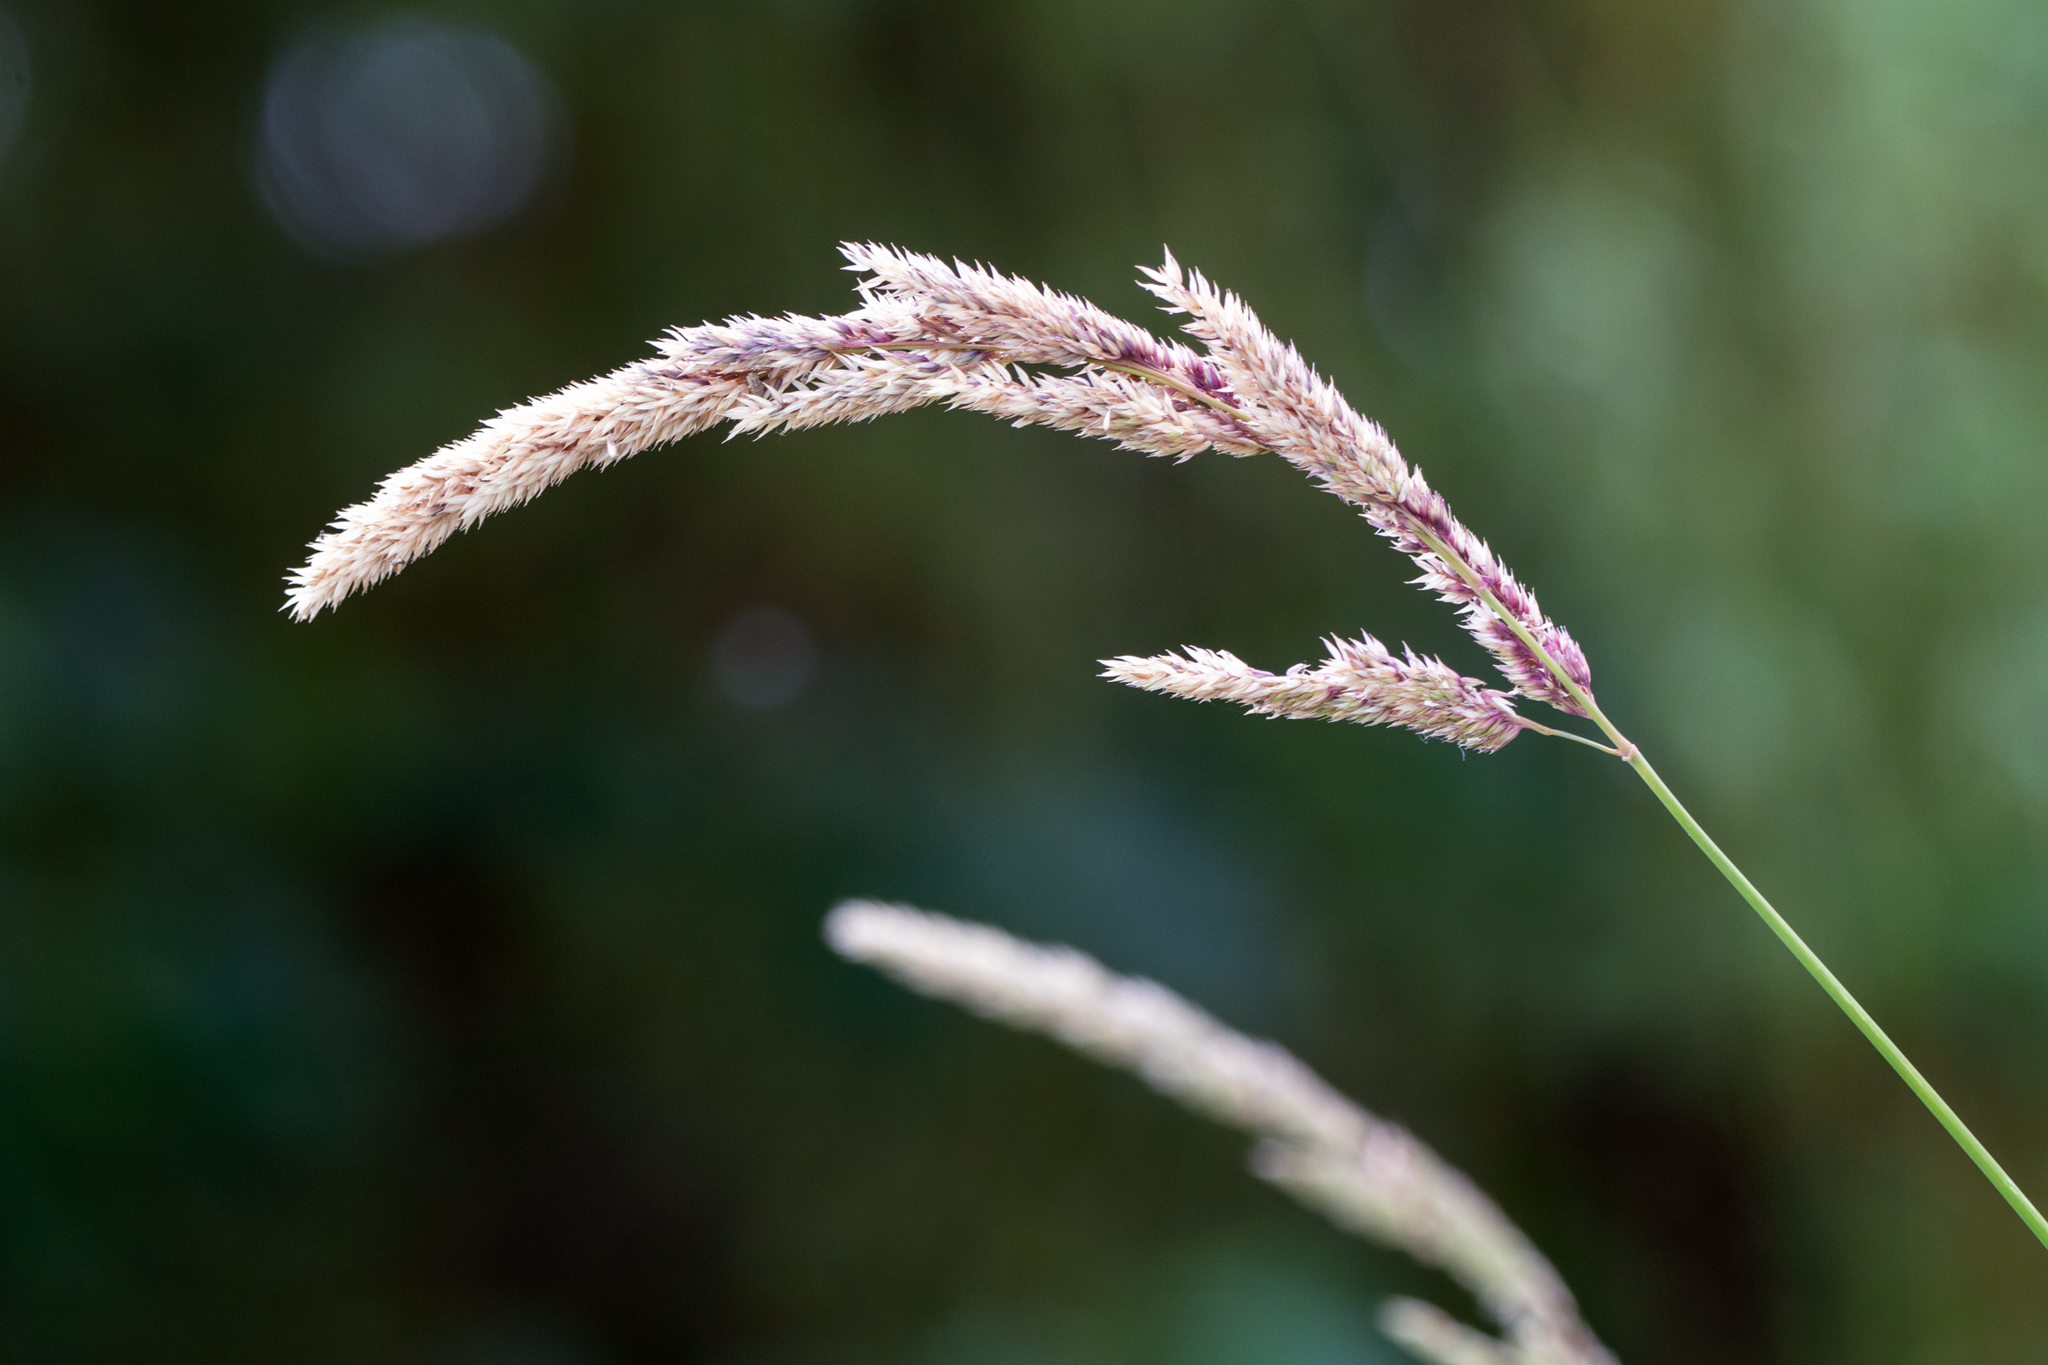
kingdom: Plantae
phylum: Tracheophyta
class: Liliopsida
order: Poales
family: Poaceae
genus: Phalaris
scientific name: Phalaris arundinacea
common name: Reed canary-grass
